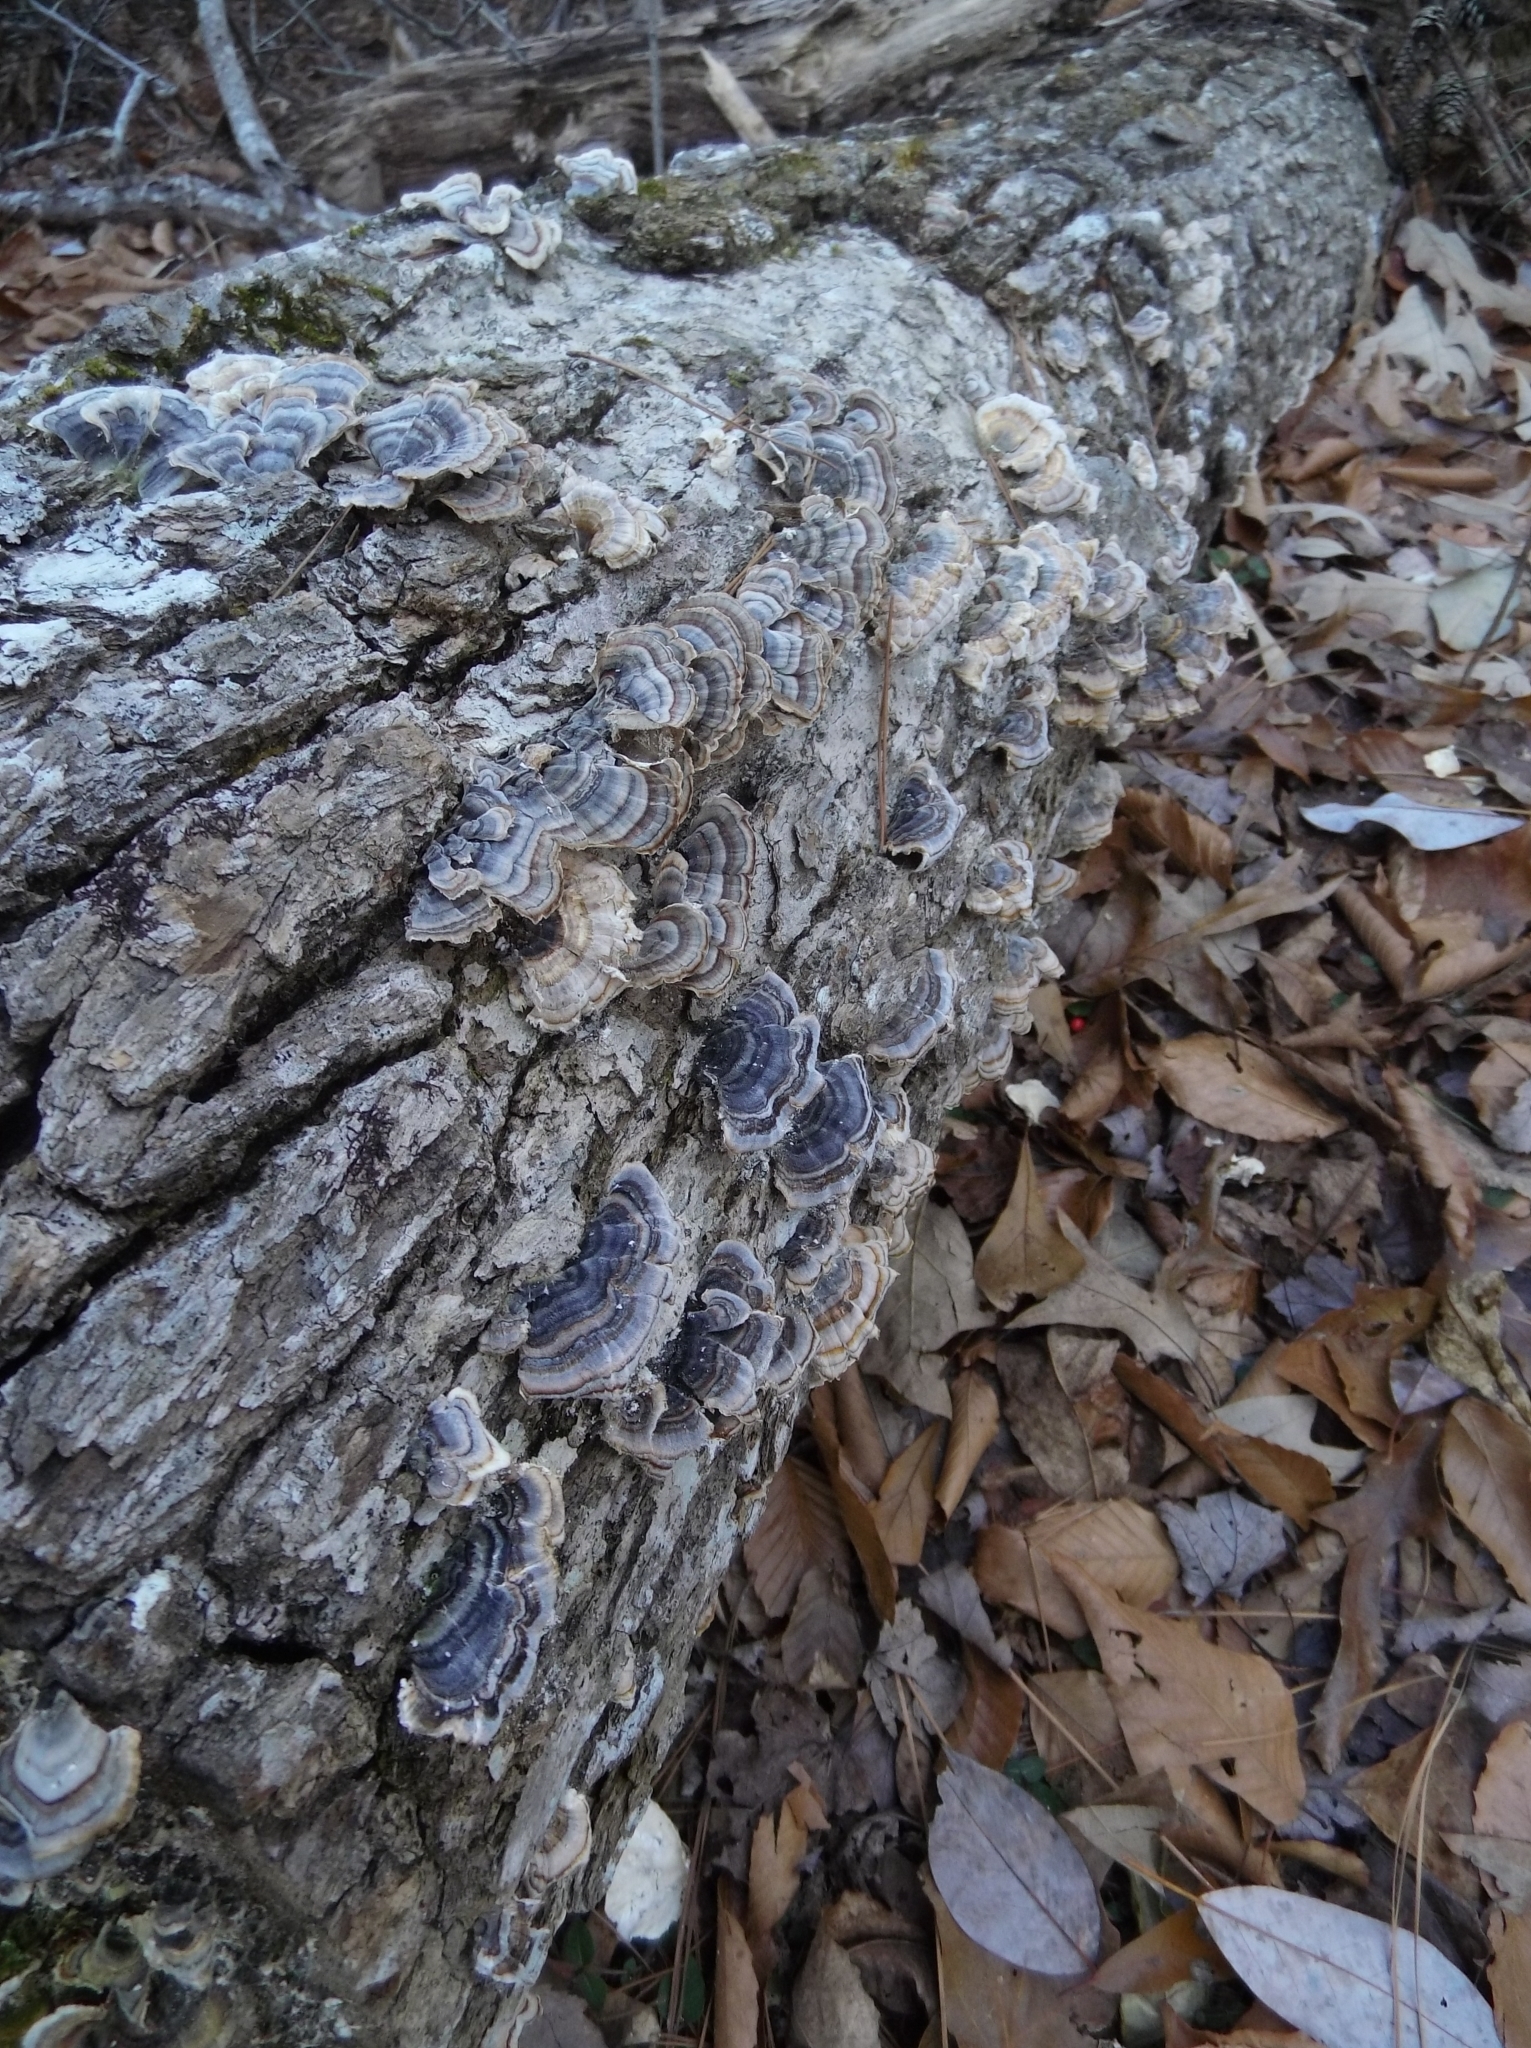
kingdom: Fungi
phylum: Basidiomycota
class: Agaricomycetes
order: Polyporales
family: Polyporaceae
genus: Trametes
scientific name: Trametes versicolor
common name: Turkeytail
